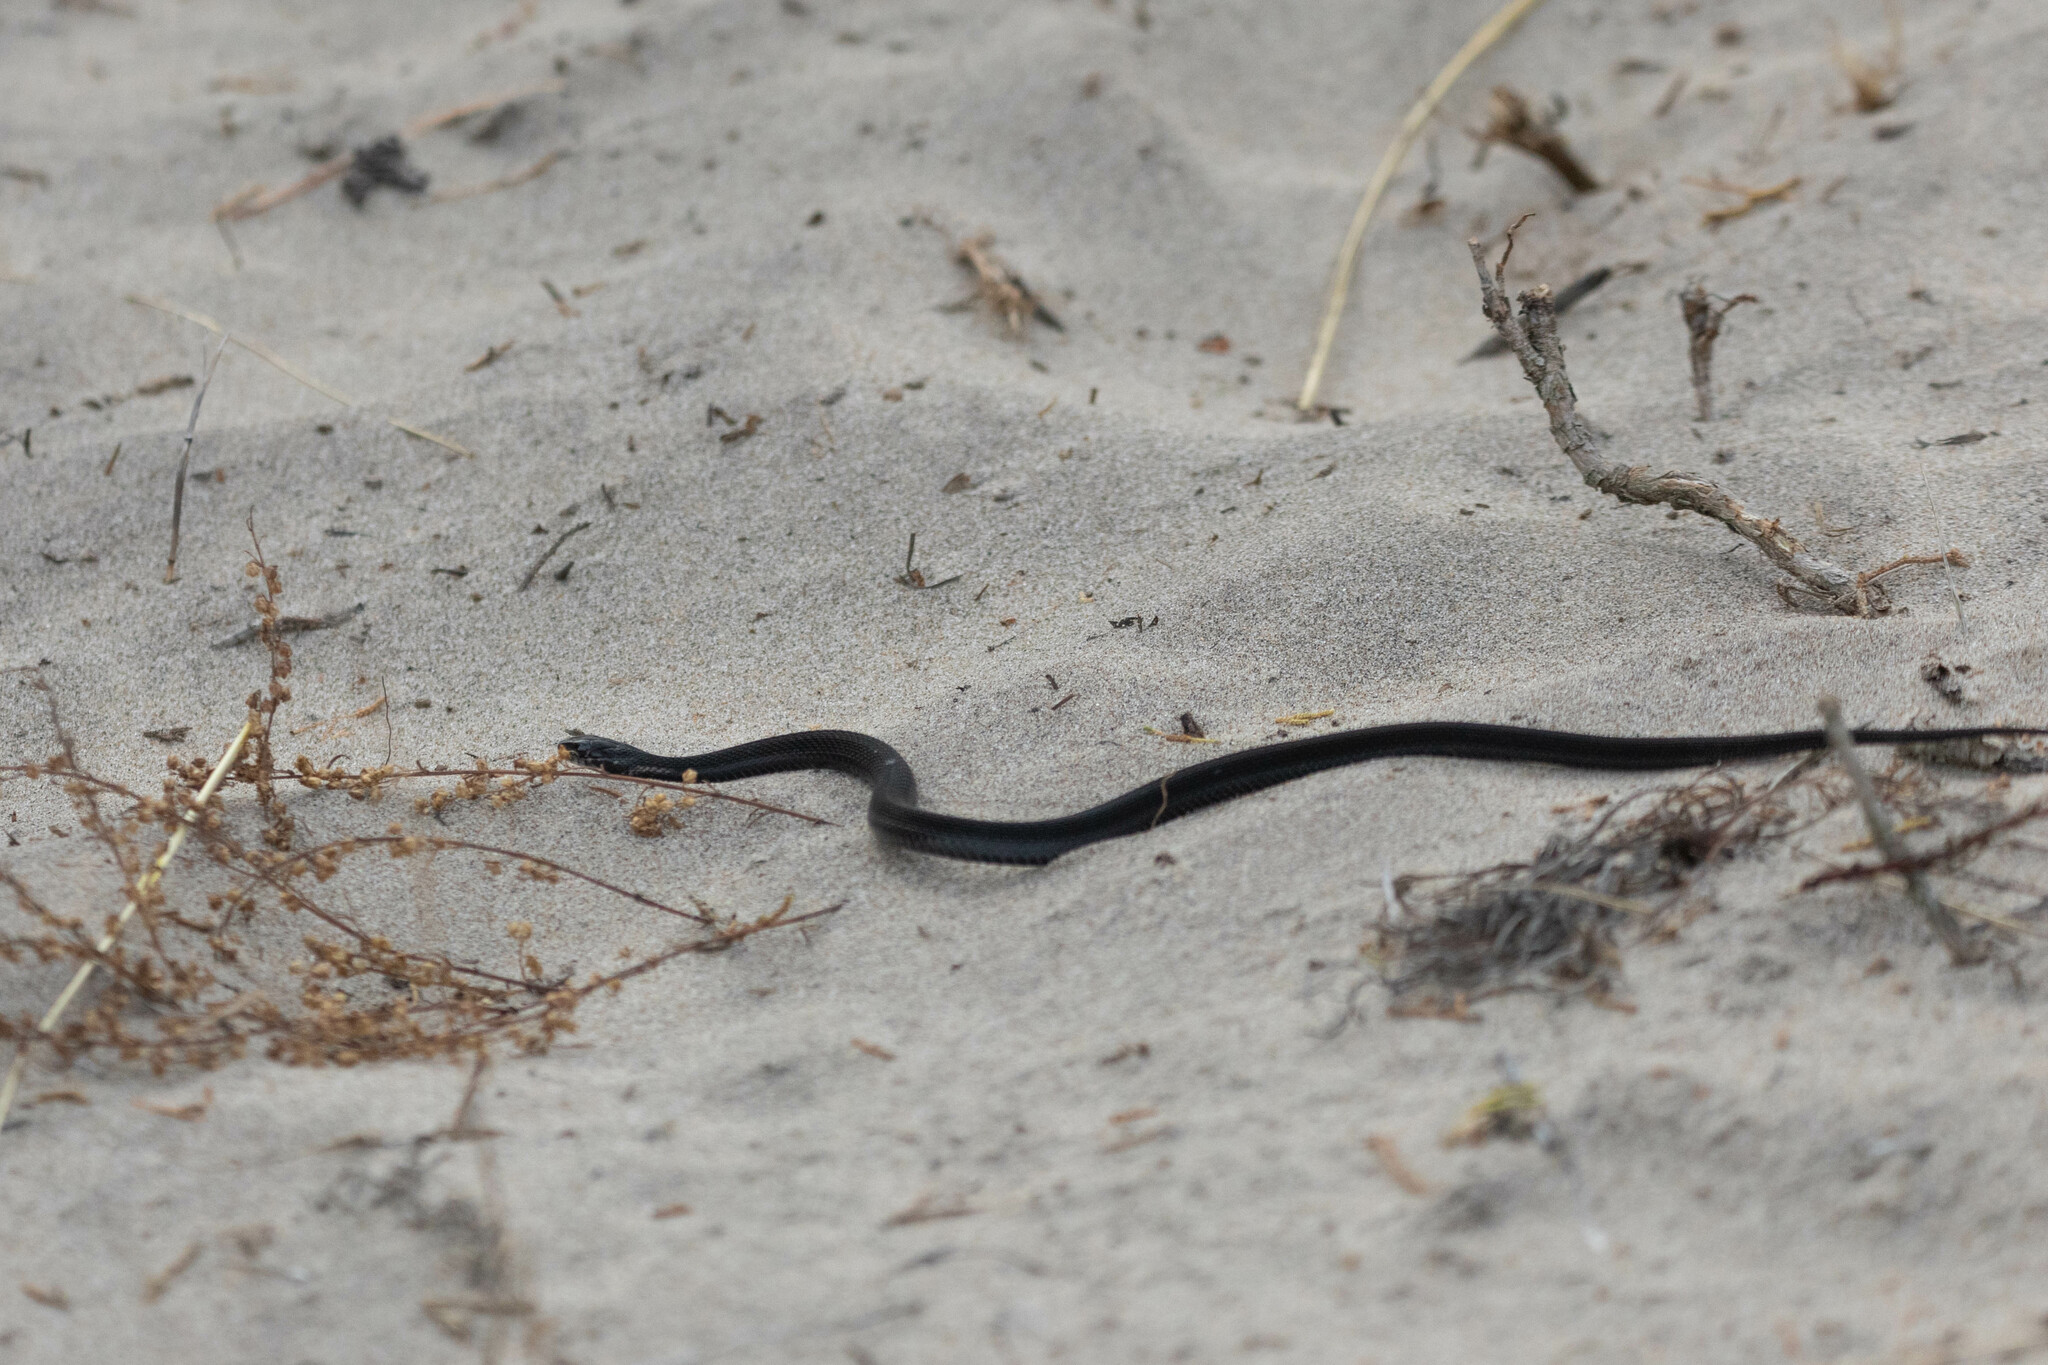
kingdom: Animalia
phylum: Chordata
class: Squamata
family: Colubridae
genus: Thamnophis
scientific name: Thamnophis sirtalis
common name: Common garter snake
